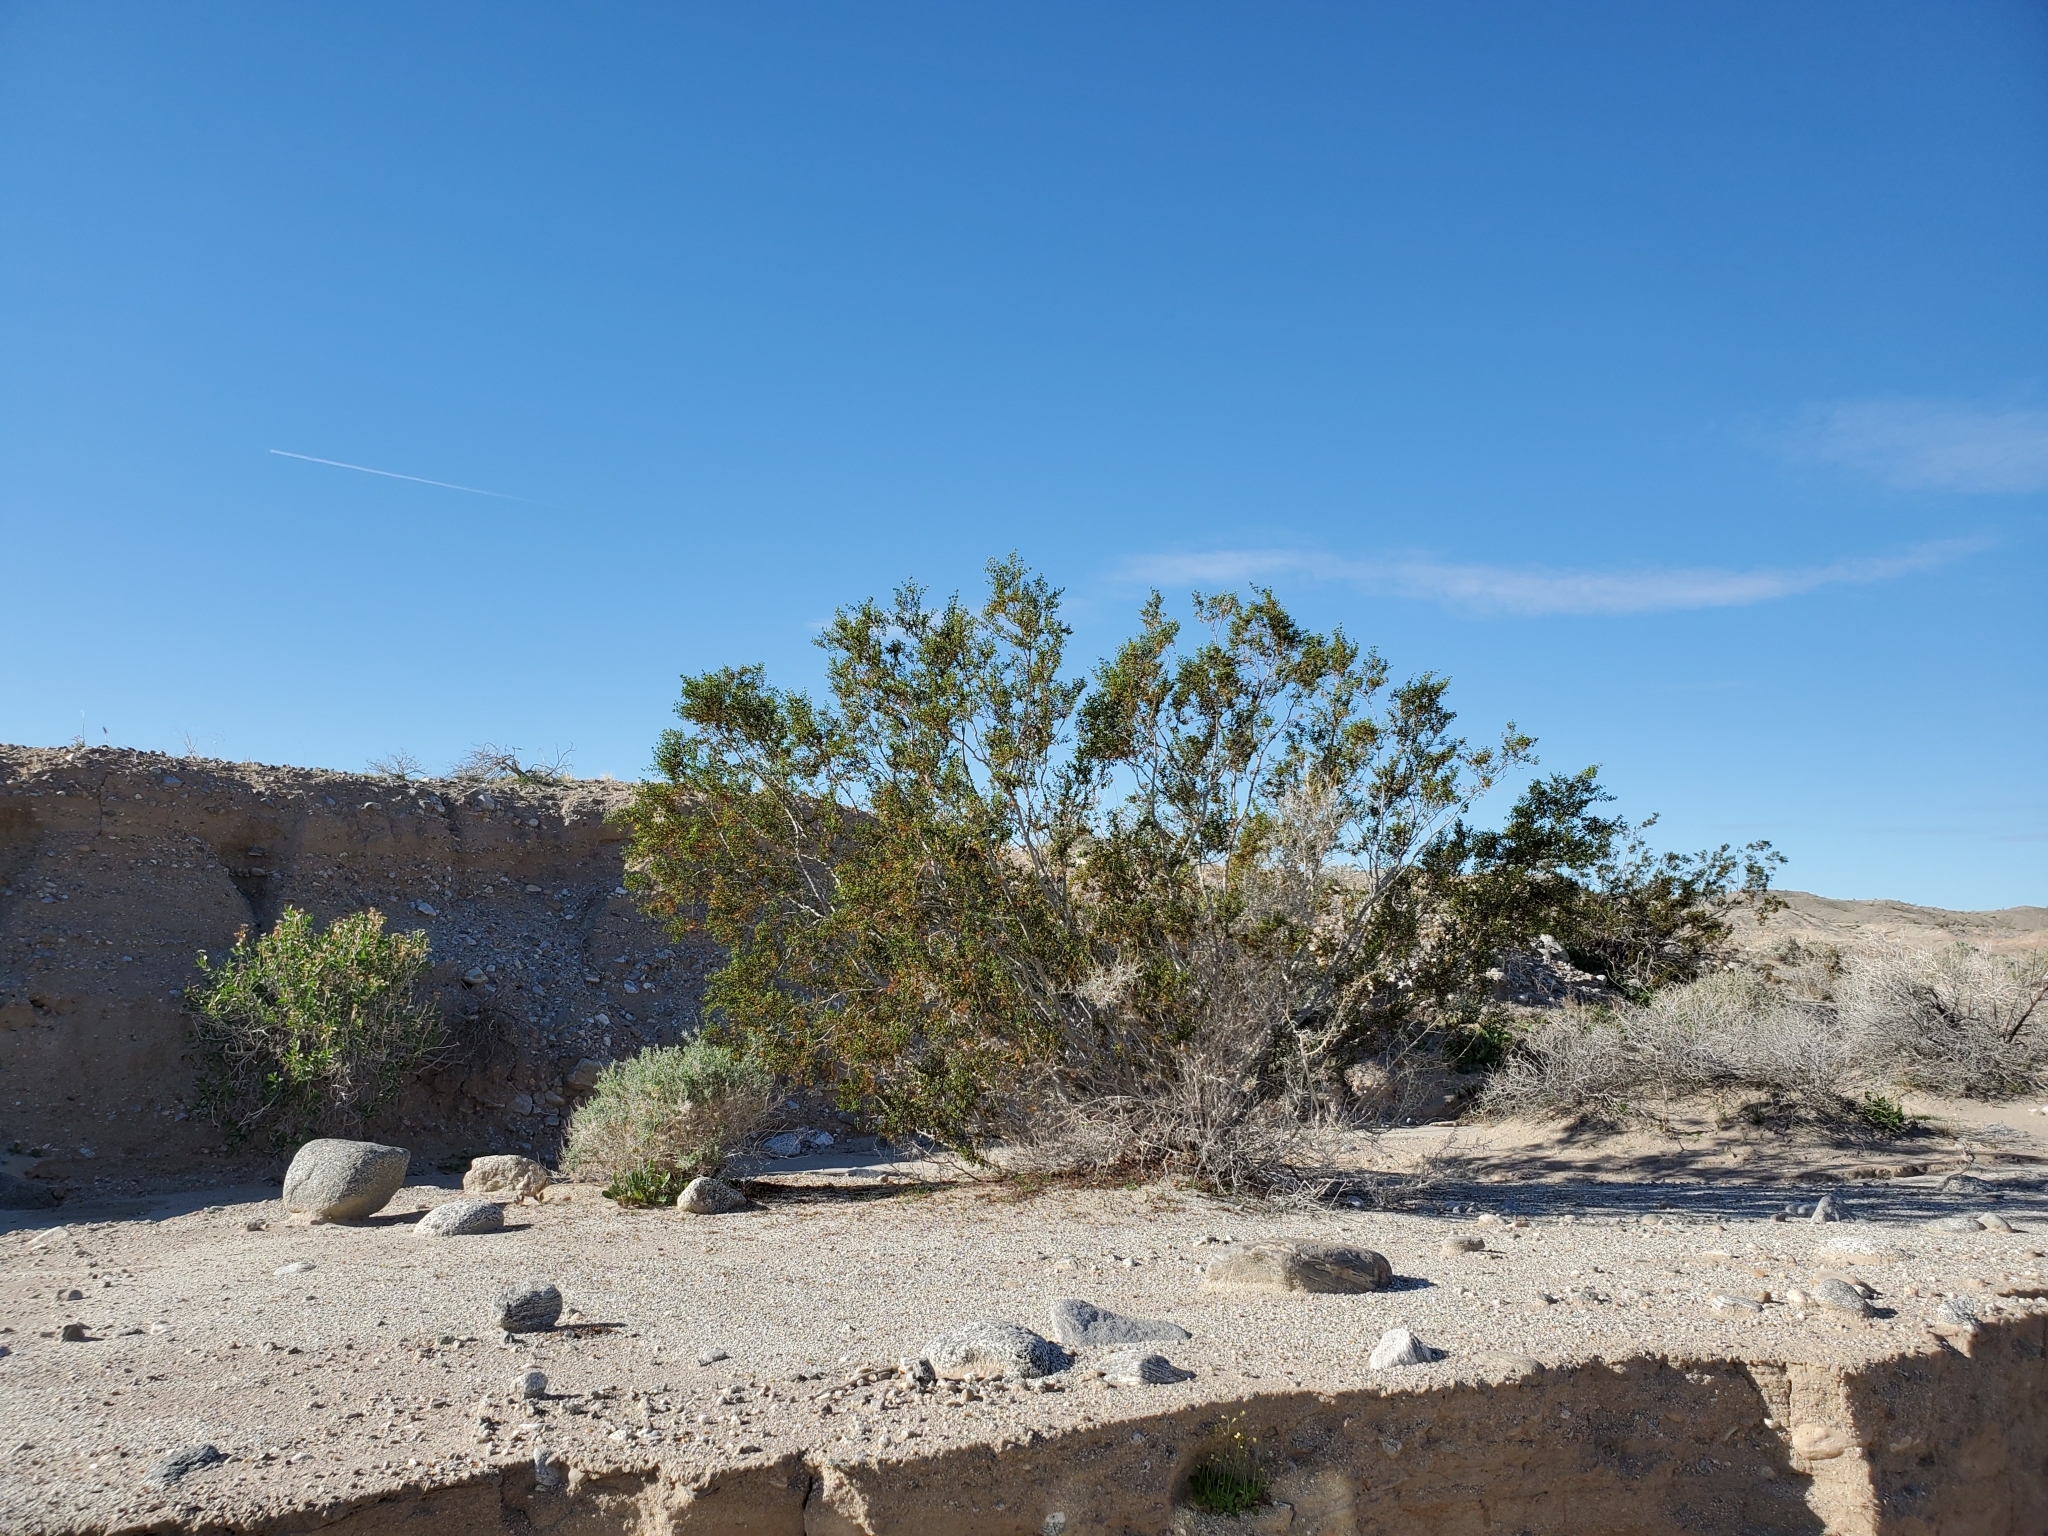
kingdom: Plantae
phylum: Tracheophyta
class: Magnoliopsida
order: Zygophyllales
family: Zygophyllaceae
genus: Larrea
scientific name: Larrea tridentata
